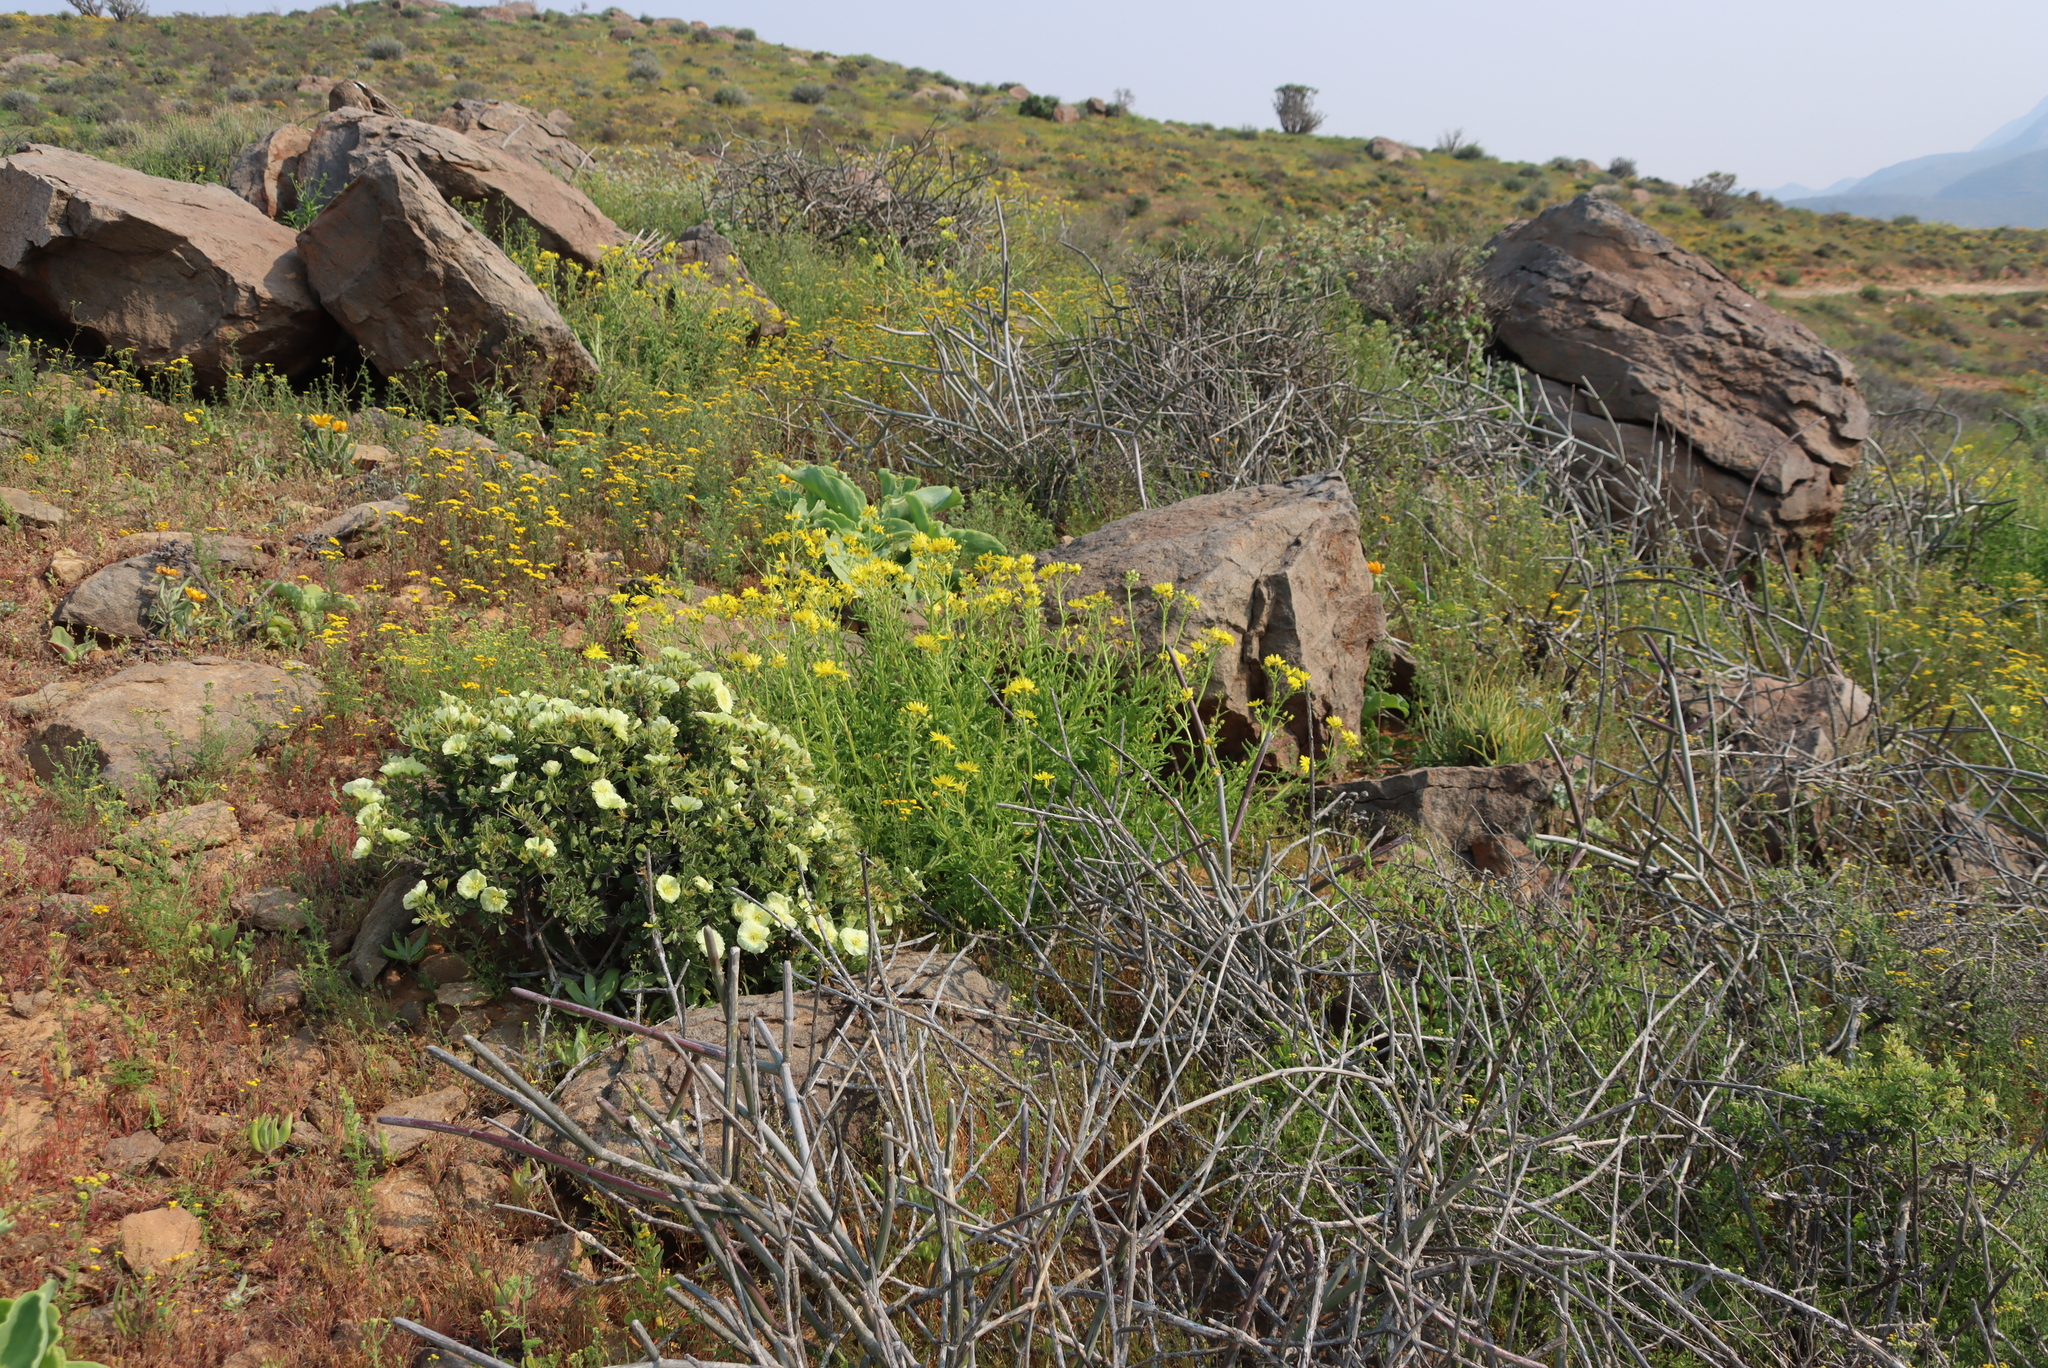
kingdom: Plantae
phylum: Tracheophyta
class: Magnoliopsida
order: Geraniales
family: Geraniaceae
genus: Monsonia
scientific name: Monsonia crassicaulis
